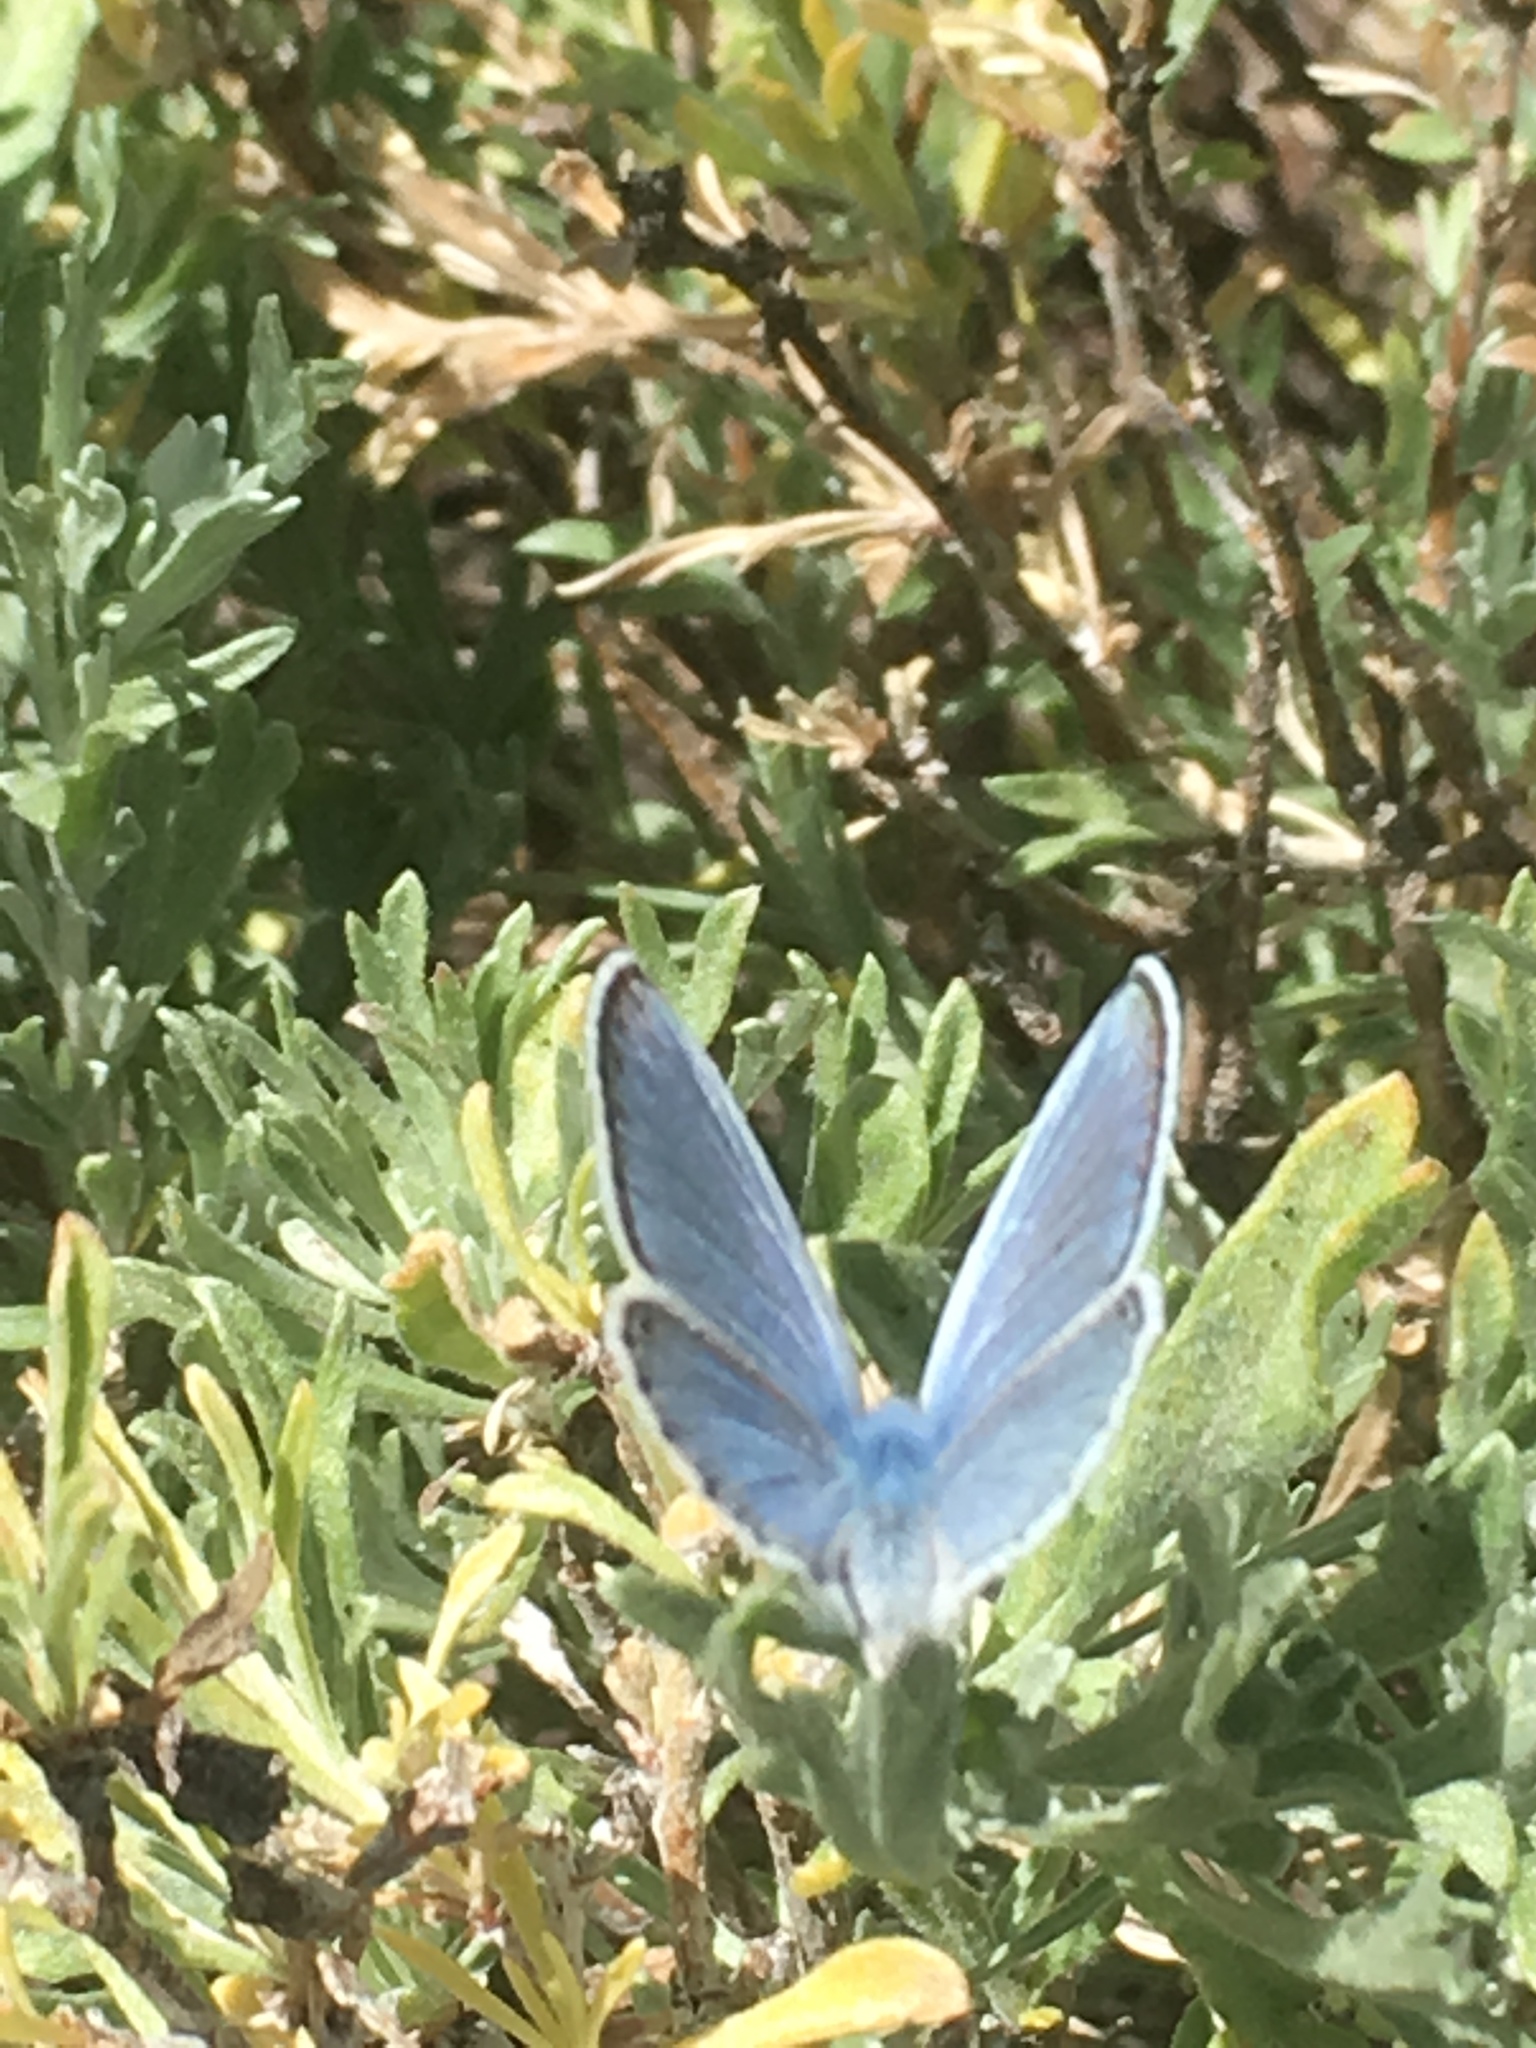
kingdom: Animalia
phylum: Arthropoda
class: Insecta
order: Lepidoptera
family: Lycaenidae
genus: Icaricia
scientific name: Icaricia icarioides
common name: Boisduval's blue
